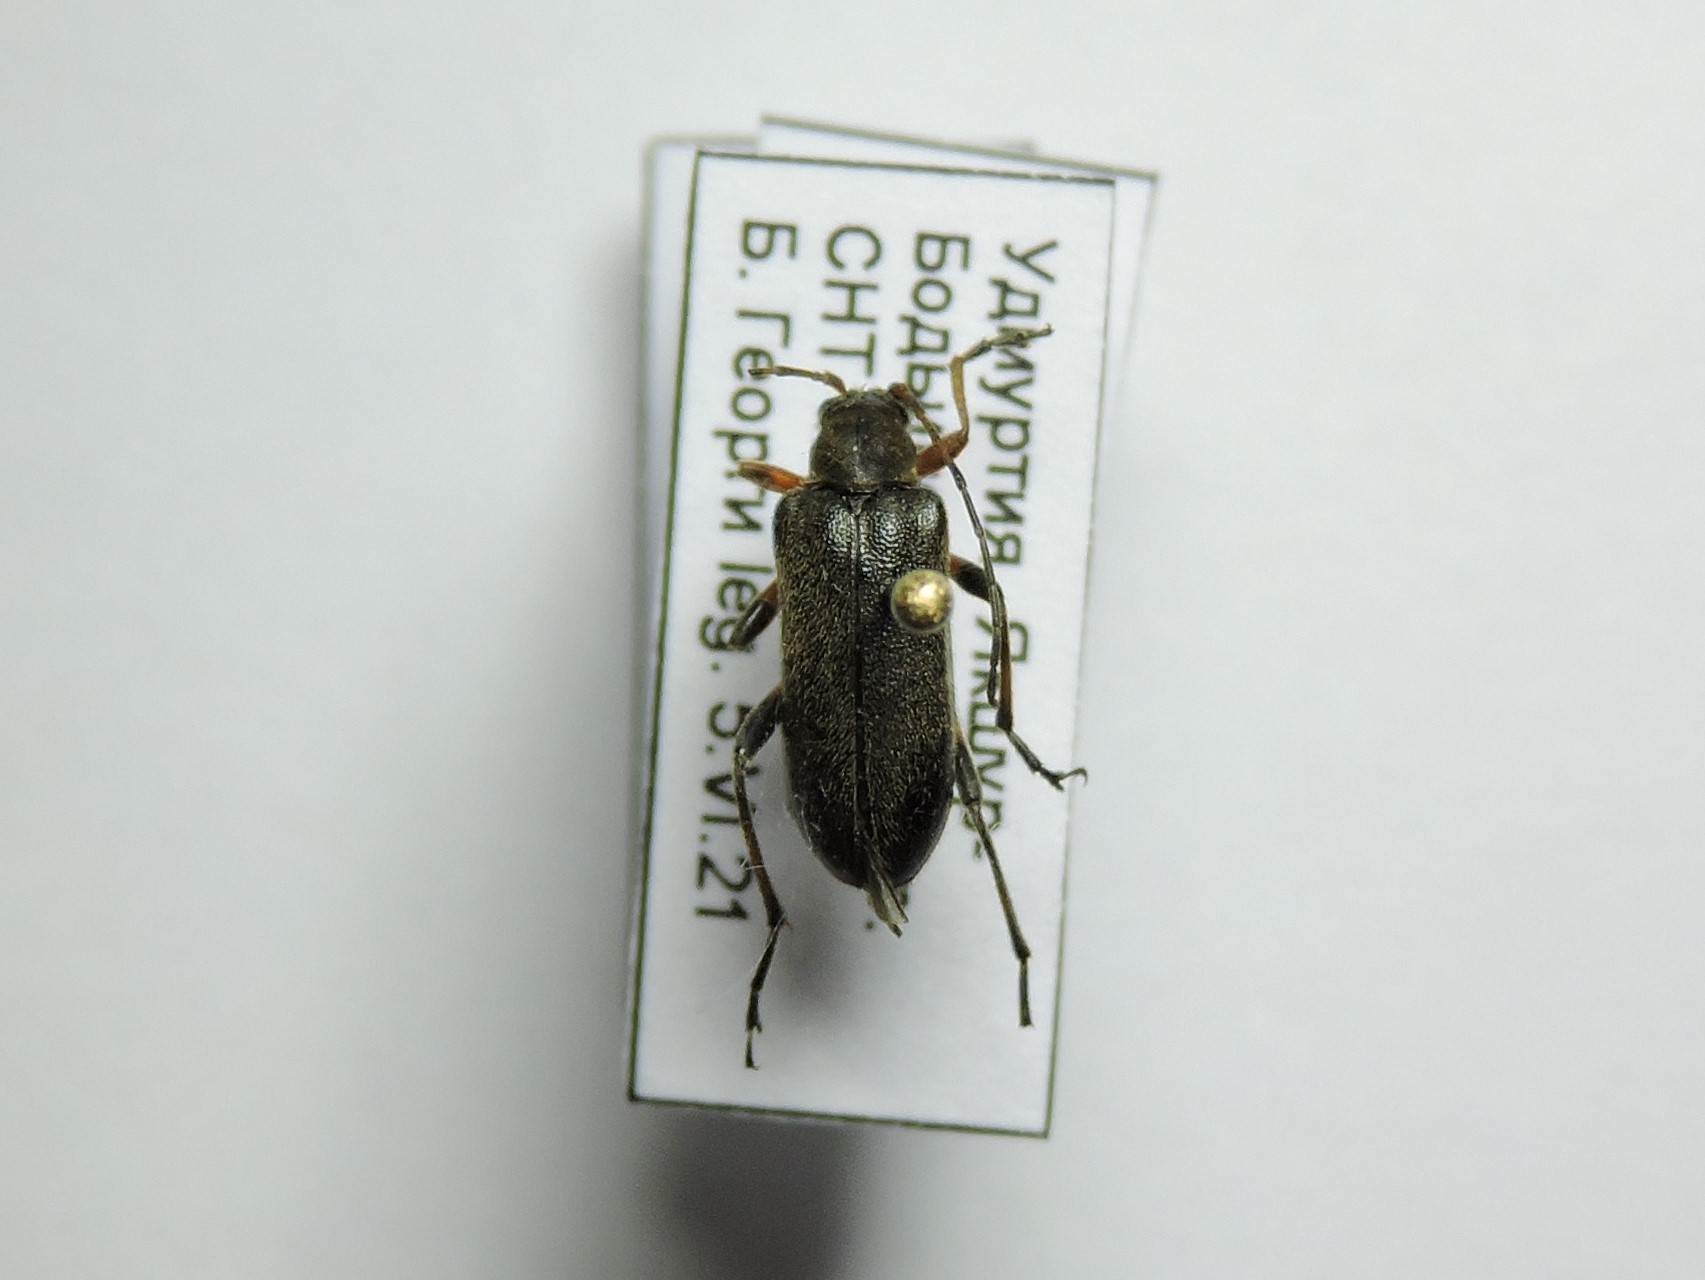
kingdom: Animalia
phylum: Arthropoda
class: Insecta
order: Coleoptera
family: Cerambycidae
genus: Cortodera
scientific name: Cortodera femorata
